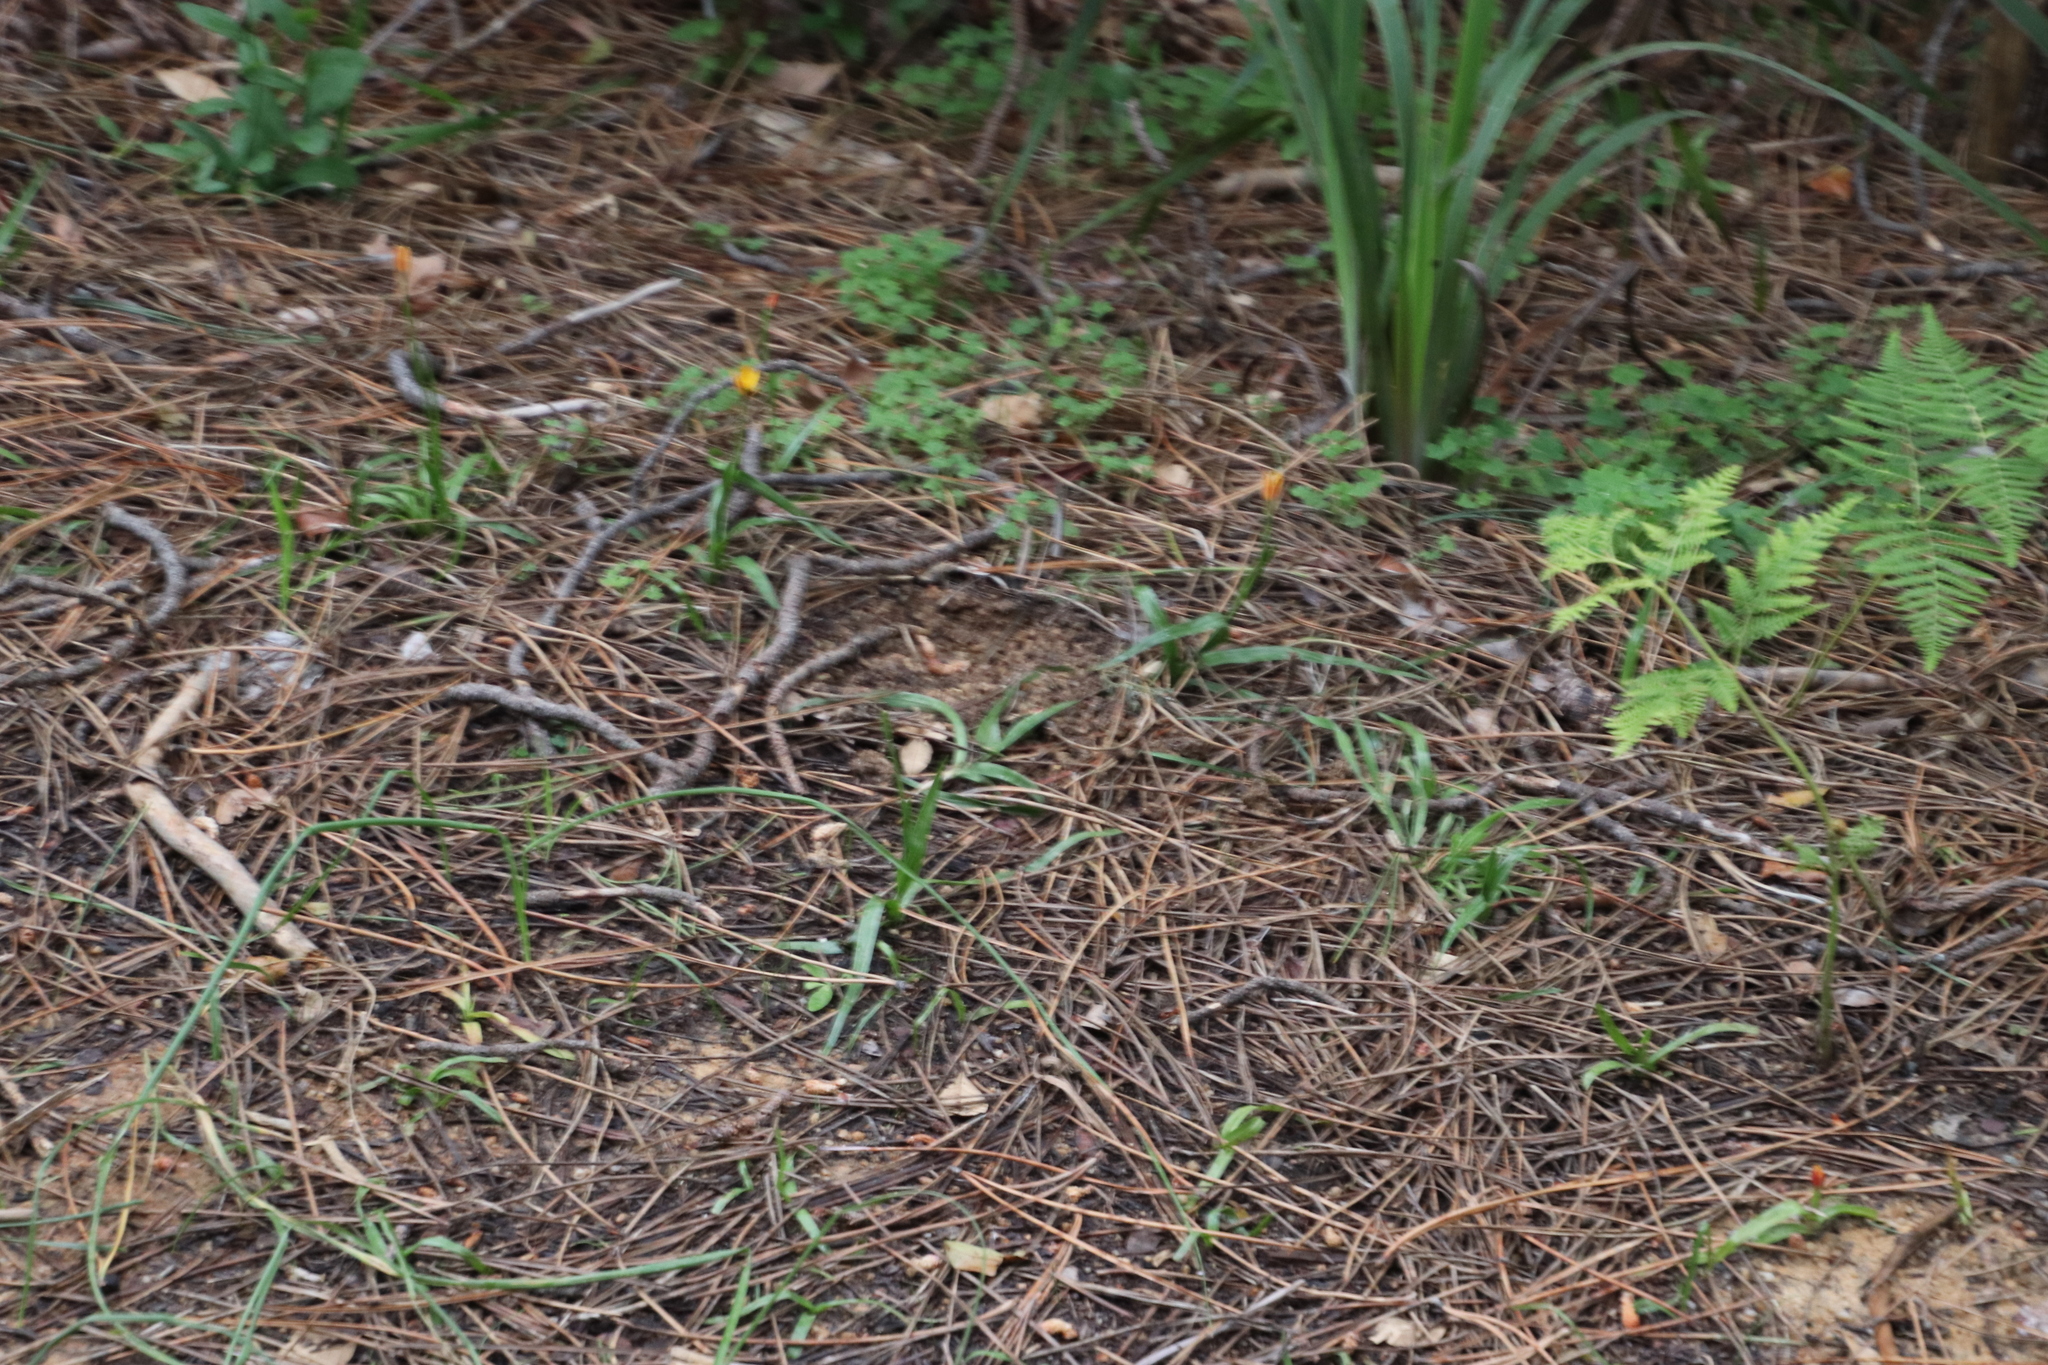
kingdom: Plantae
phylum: Tracheophyta
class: Liliopsida
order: Liliales
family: Colchicaceae
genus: Baeometra
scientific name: Baeometra uniflora
